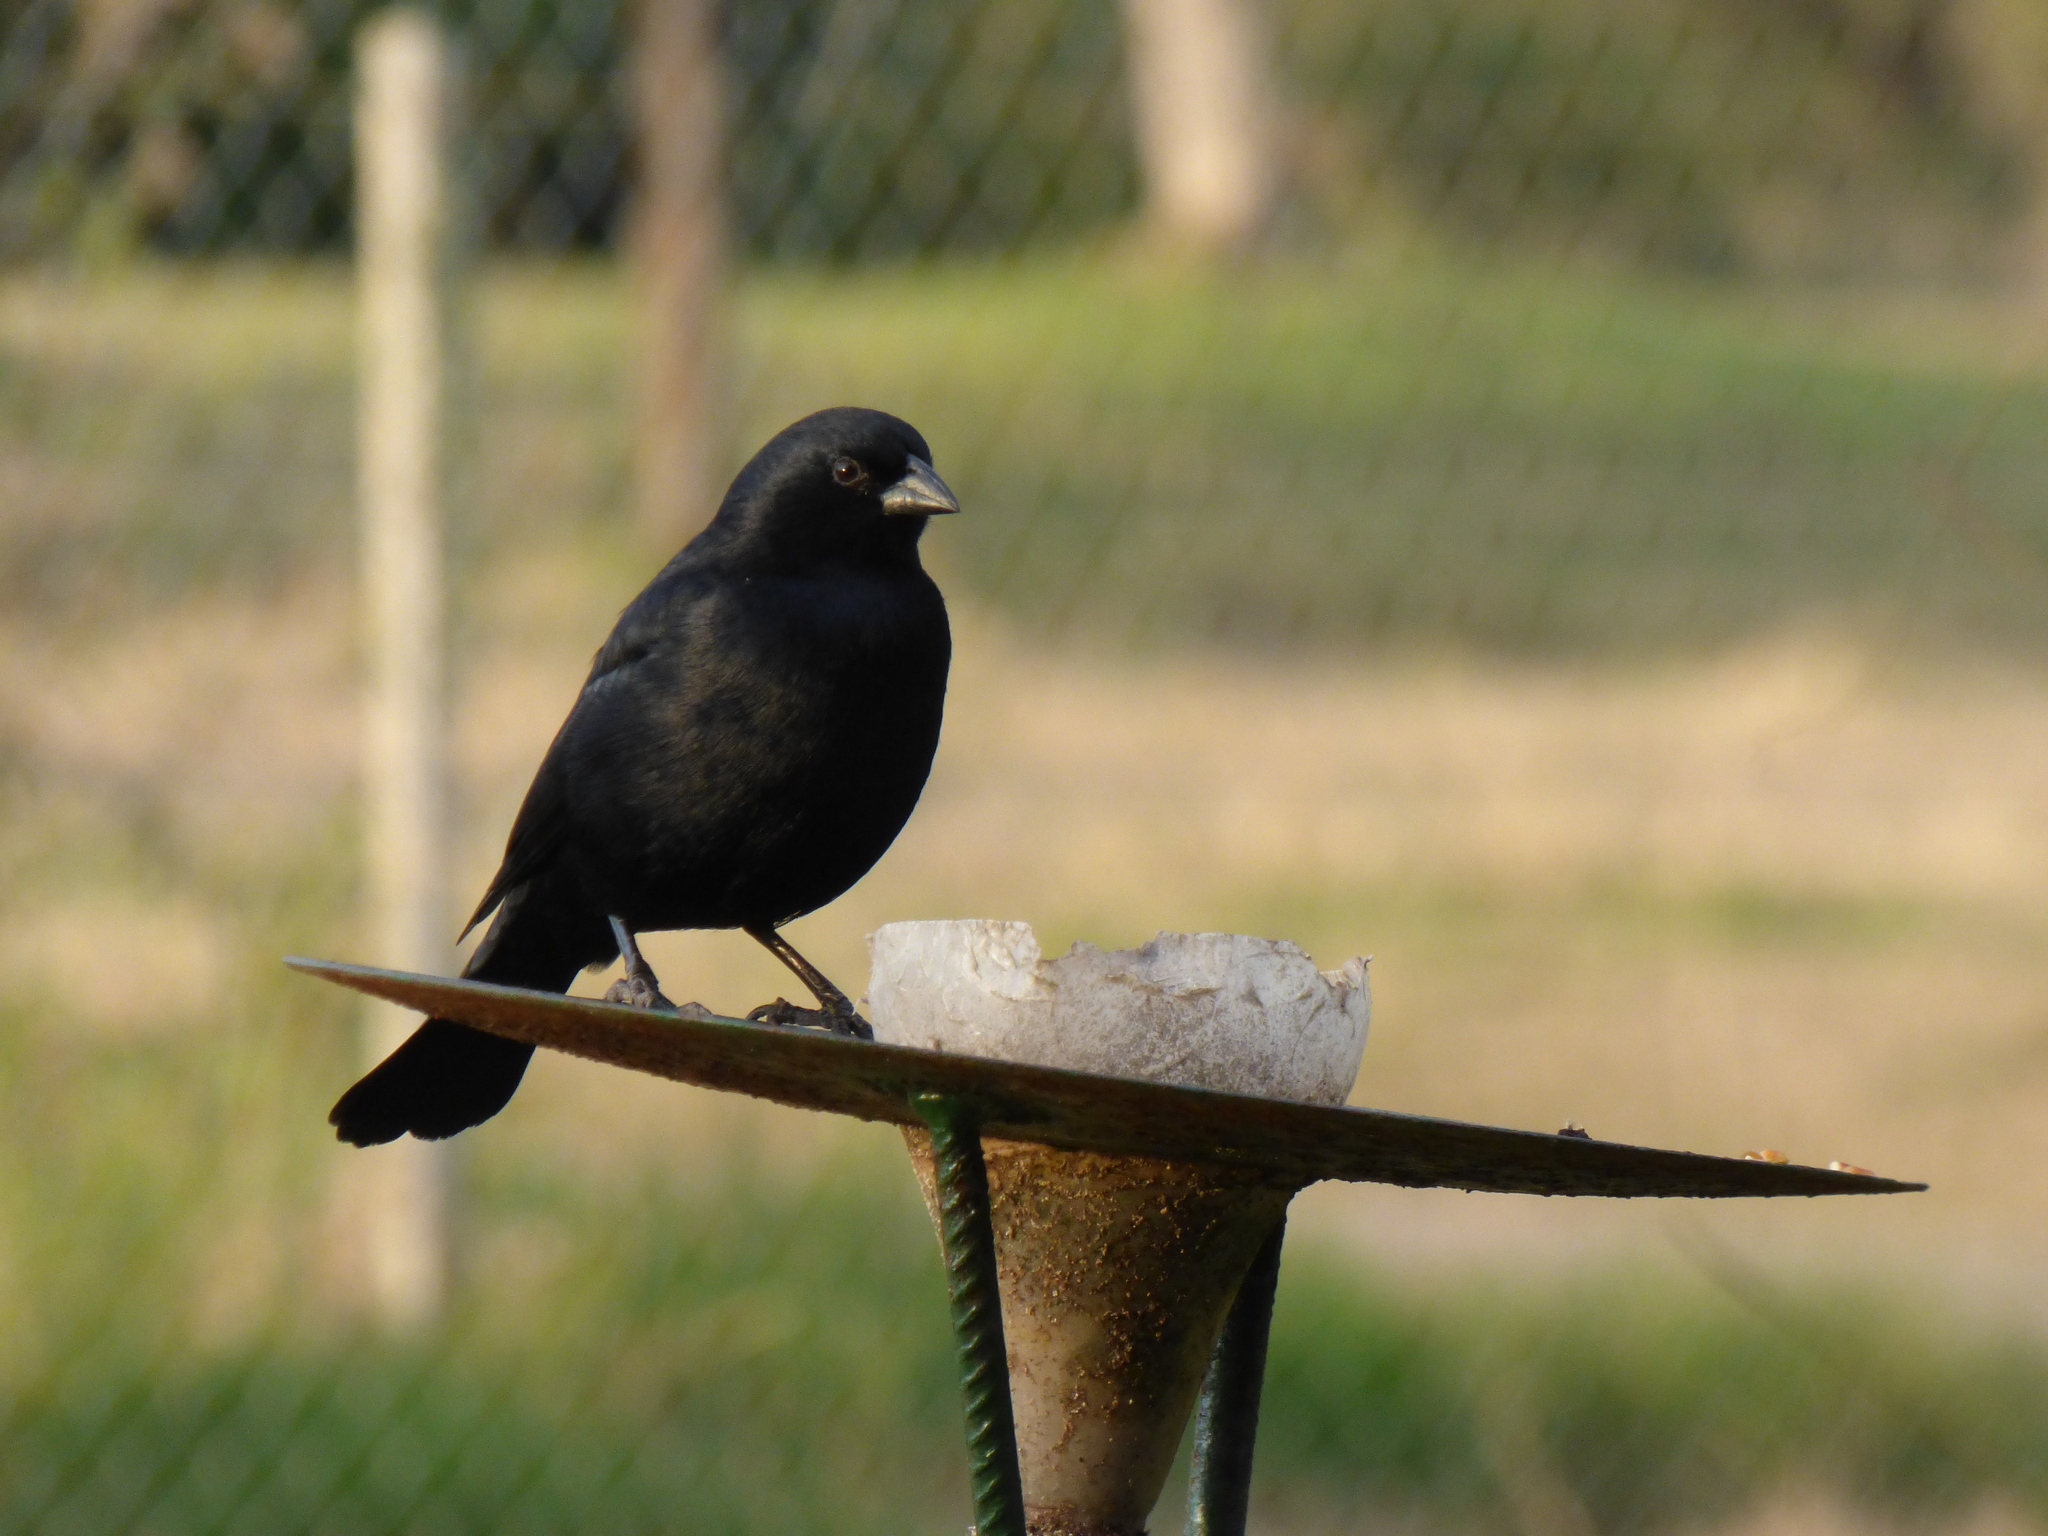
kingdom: Animalia
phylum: Chordata
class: Aves
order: Passeriformes
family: Icteridae
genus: Molothrus
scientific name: Molothrus rufoaxillaris
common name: Screaming cowbird
